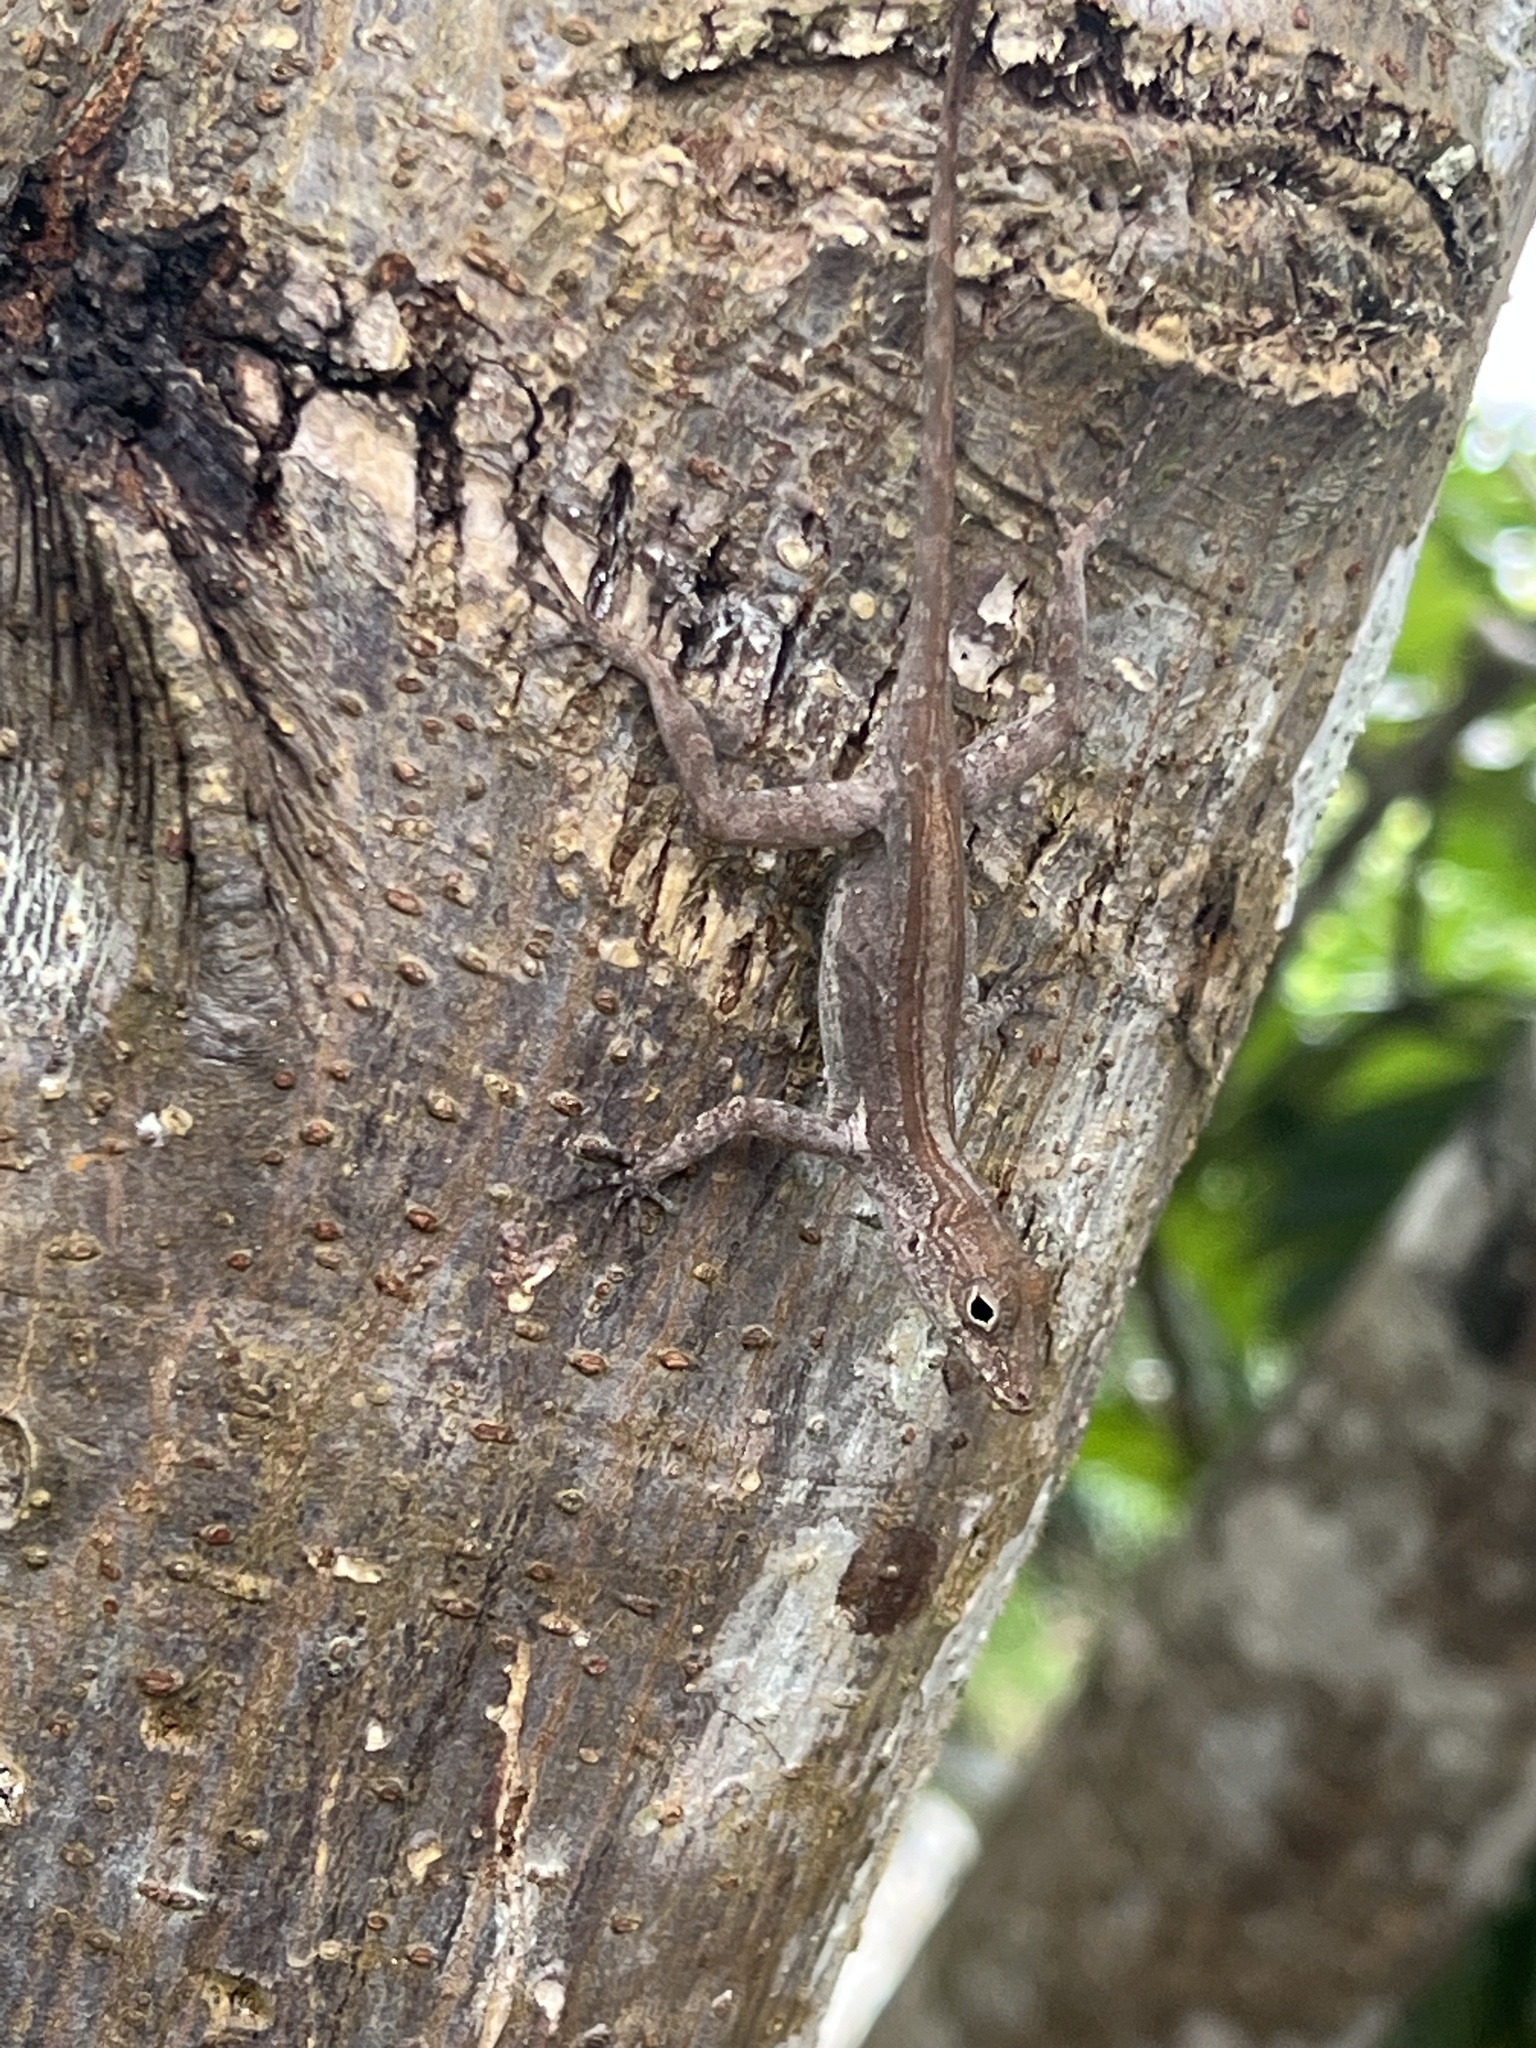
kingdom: Animalia
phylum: Chordata
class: Squamata
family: Dactyloidae
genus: Anolis
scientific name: Anolis cristatellus
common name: Crested anole
